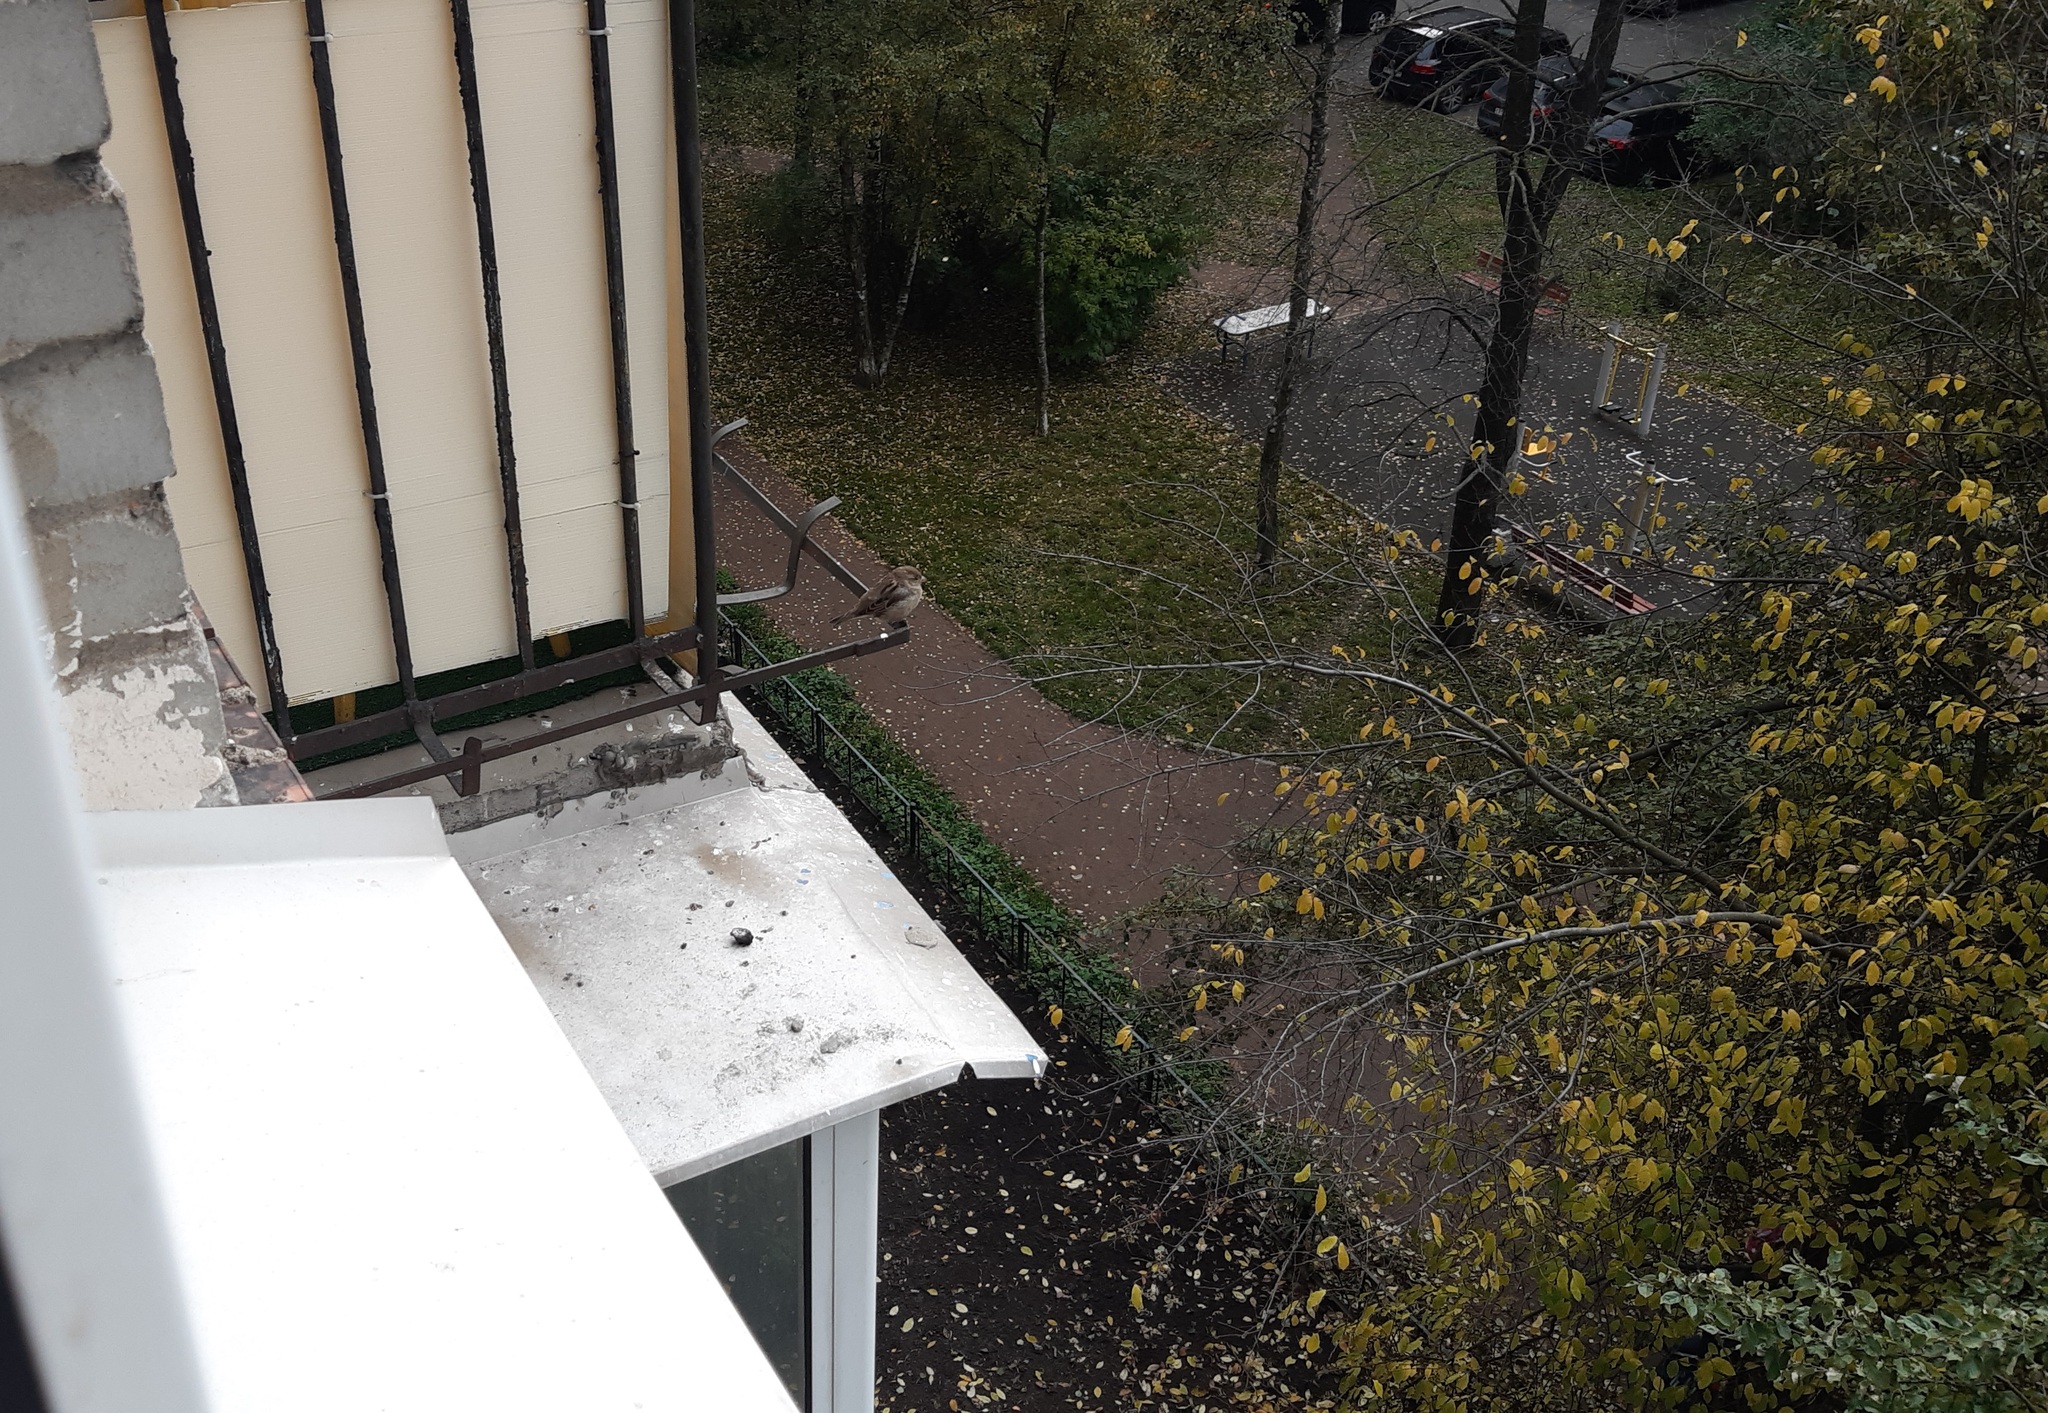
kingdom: Animalia
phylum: Chordata
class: Aves
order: Passeriformes
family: Passeridae
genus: Passer
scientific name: Passer domesticus
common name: House sparrow
